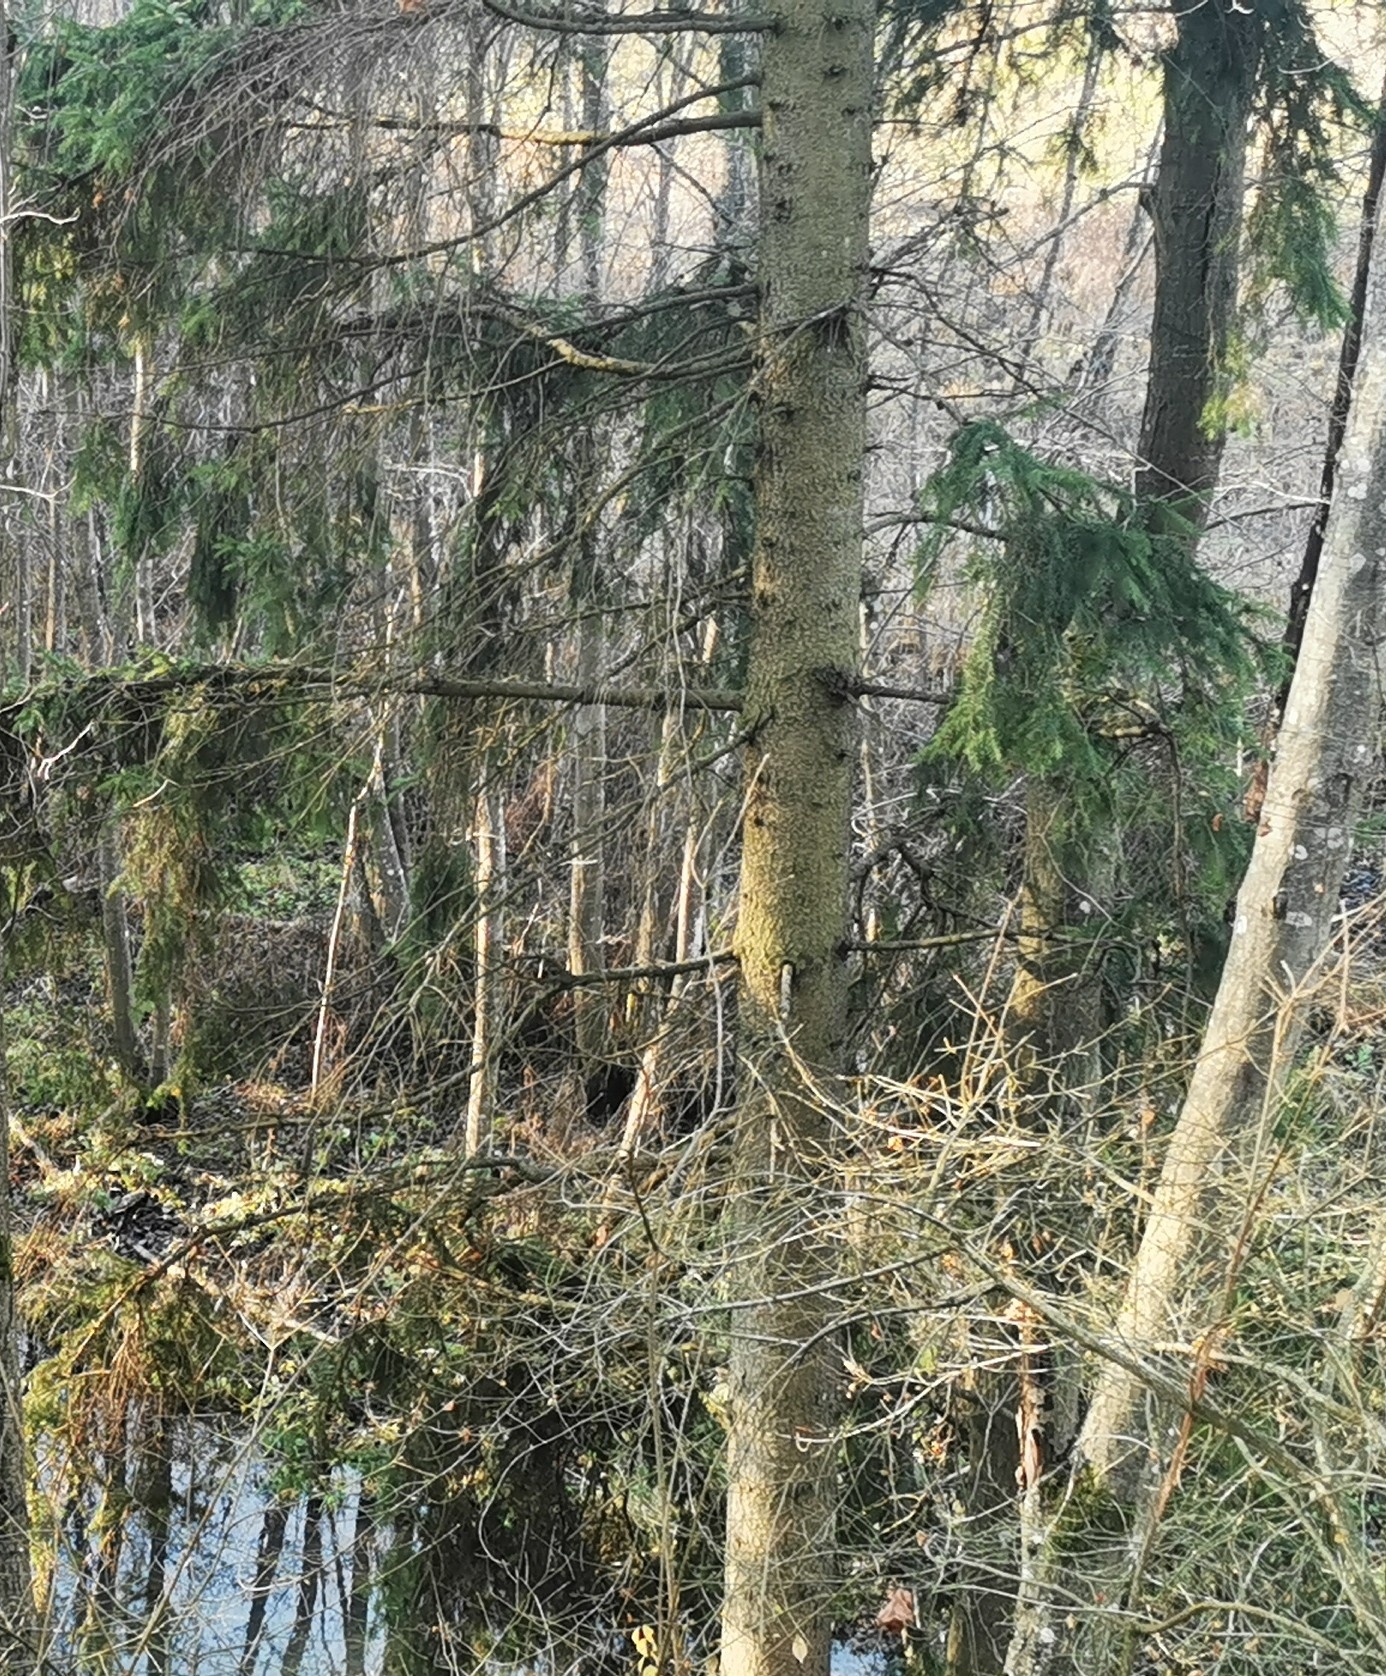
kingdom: Plantae
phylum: Tracheophyta
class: Pinopsida
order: Pinales
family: Pinaceae
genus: Picea
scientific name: Picea abies
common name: Norway spruce
